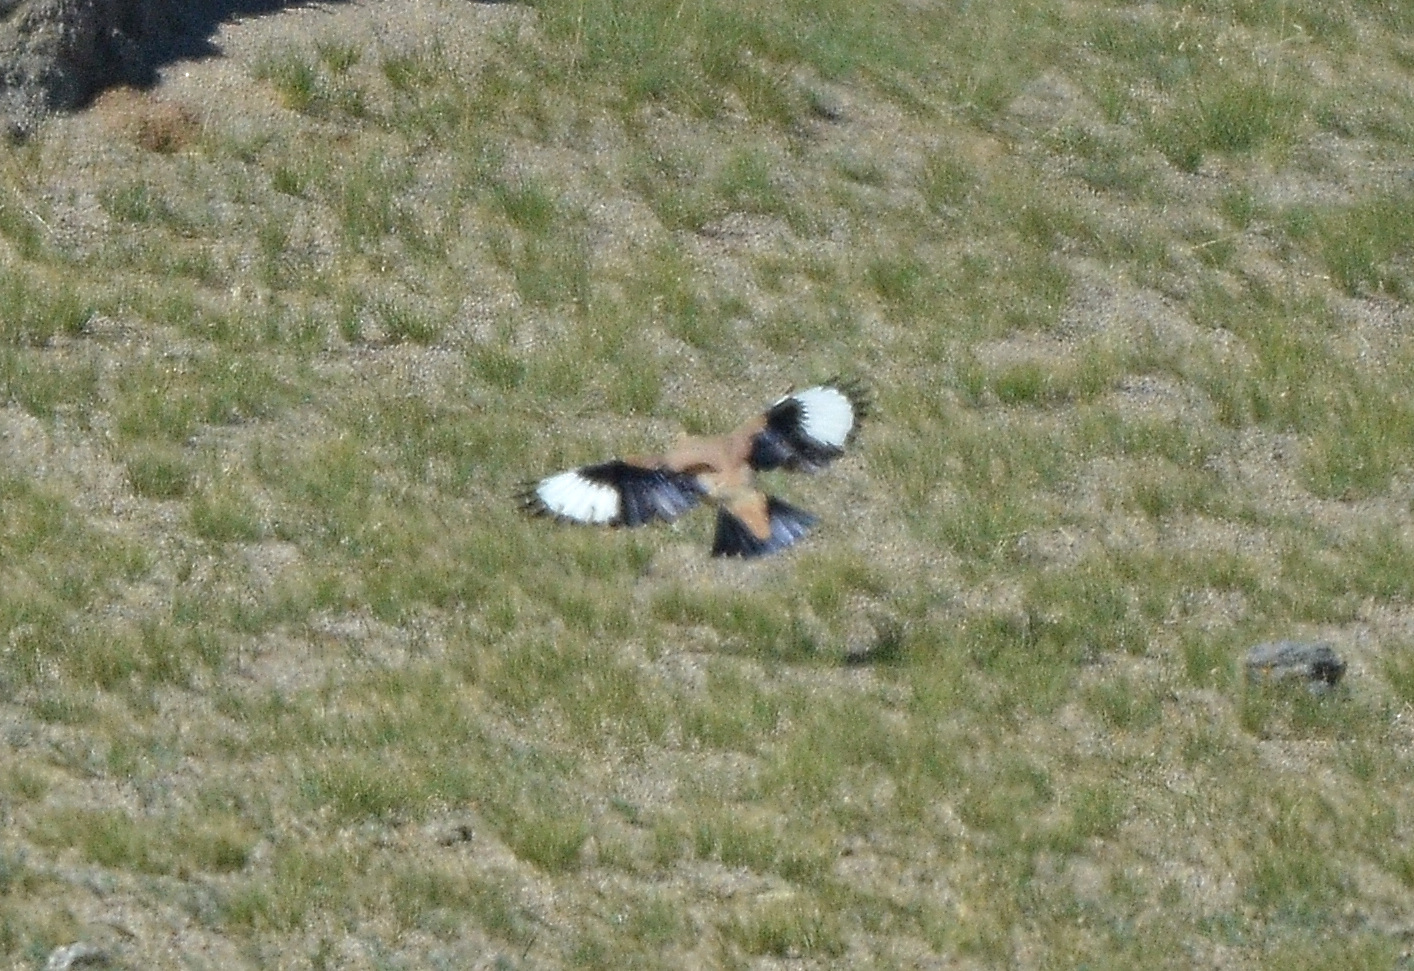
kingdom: Animalia
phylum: Chordata
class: Aves
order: Passeriformes
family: Corvidae
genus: Podoces
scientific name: Podoces hendersoni
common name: Henderson's ground jay
